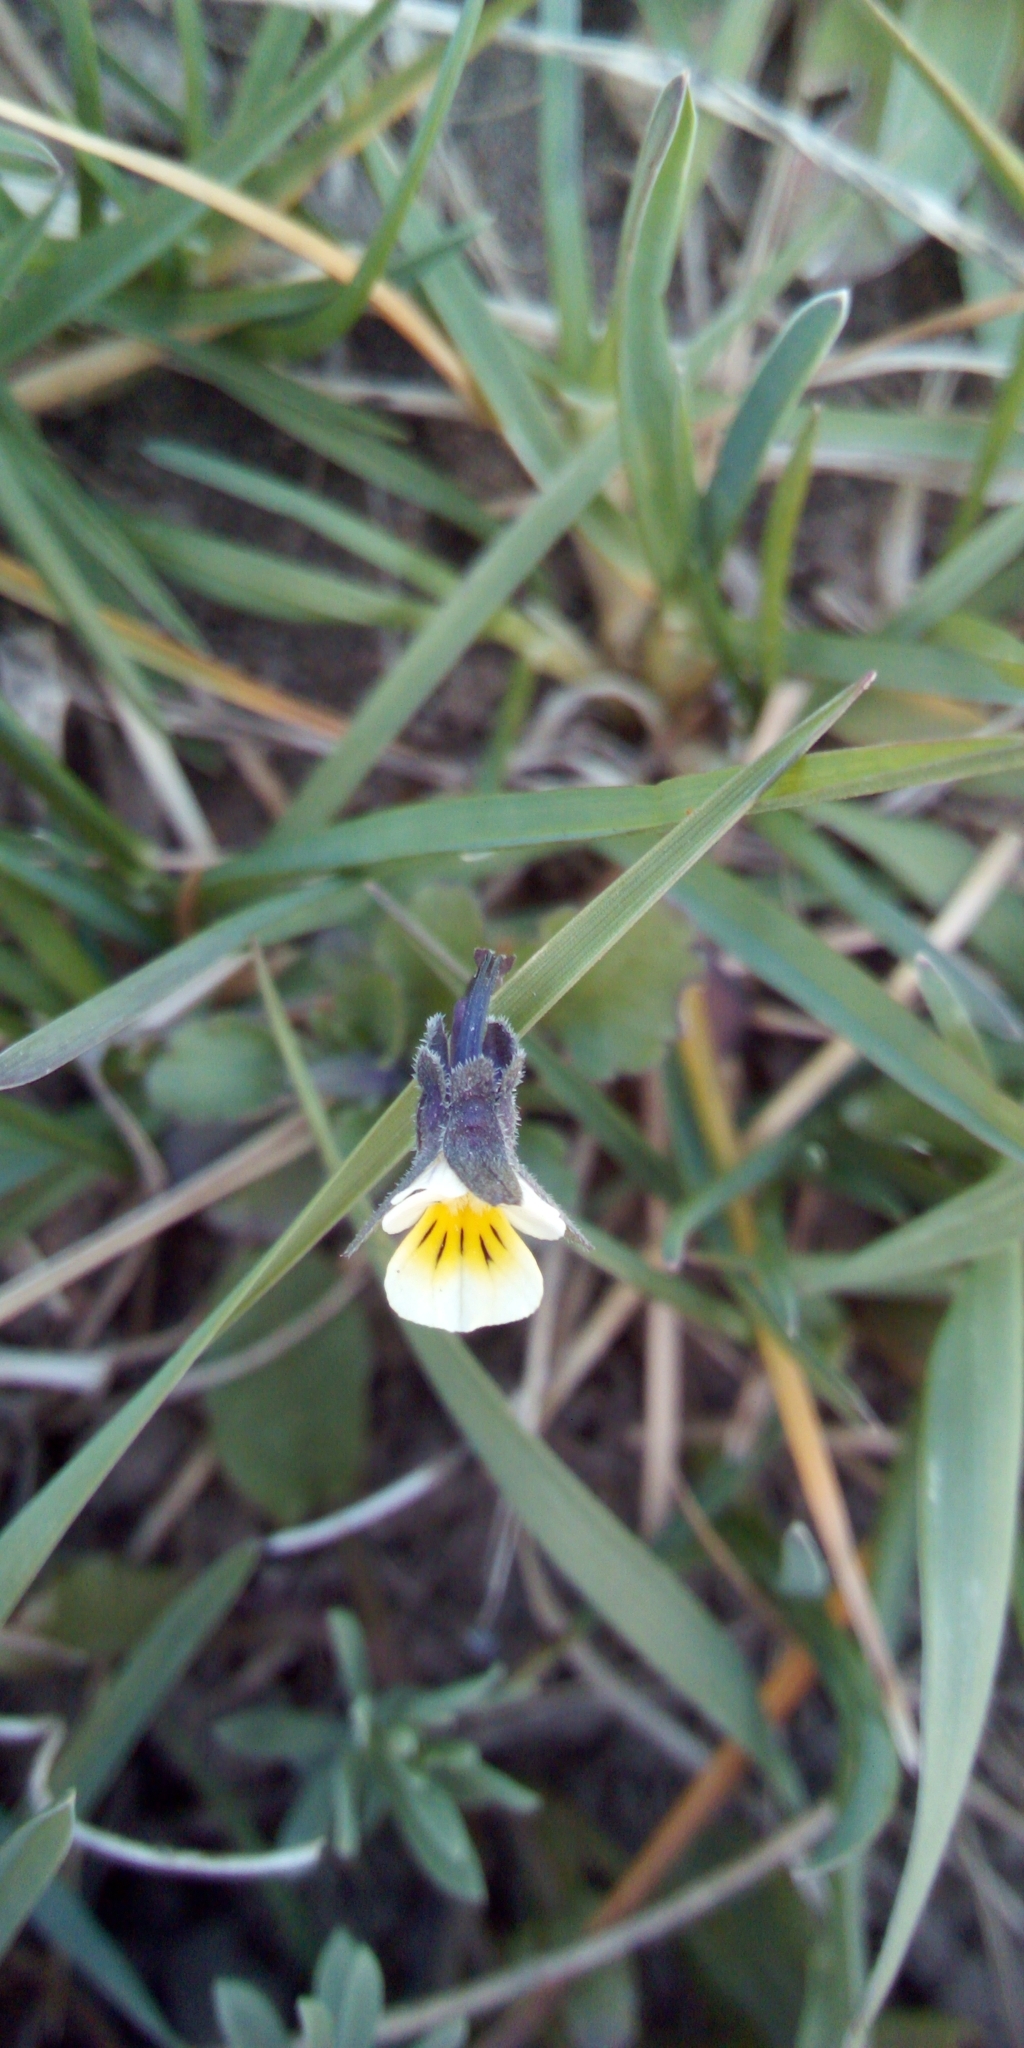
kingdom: Plantae
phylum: Tracheophyta
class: Magnoliopsida
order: Malpighiales
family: Violaceae
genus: Viola
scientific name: Viola arvensis
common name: Field pansy
